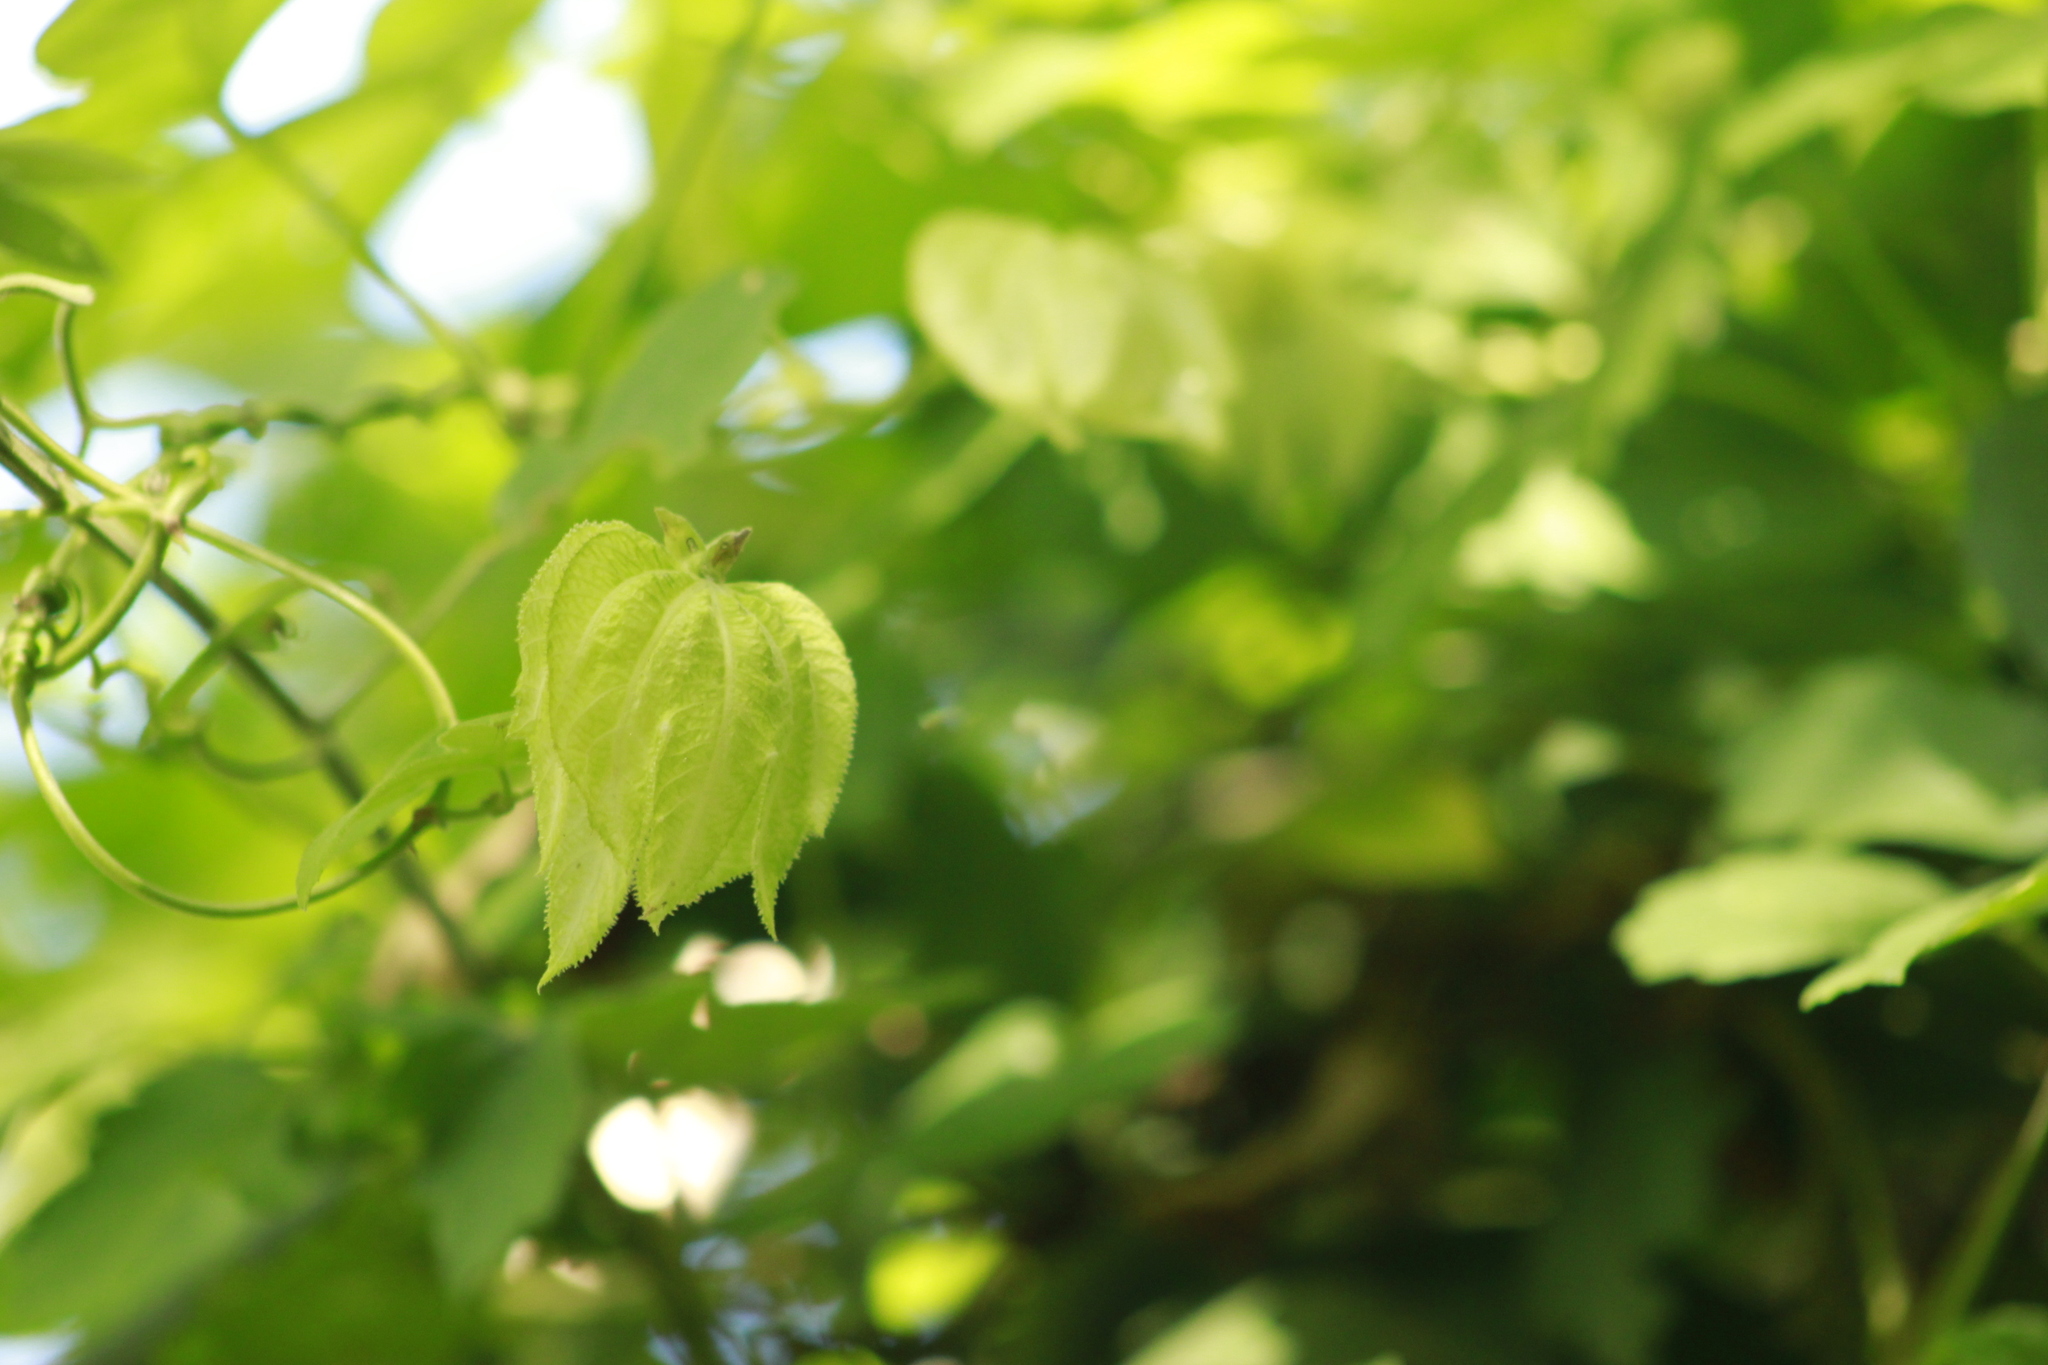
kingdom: Plantae
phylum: Tracheophyta
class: Magnoliopsida
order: Malpighiales
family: Euphorbiaceae
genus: Dalechampia
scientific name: Dalechampia scandens
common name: Spurgecreeper
